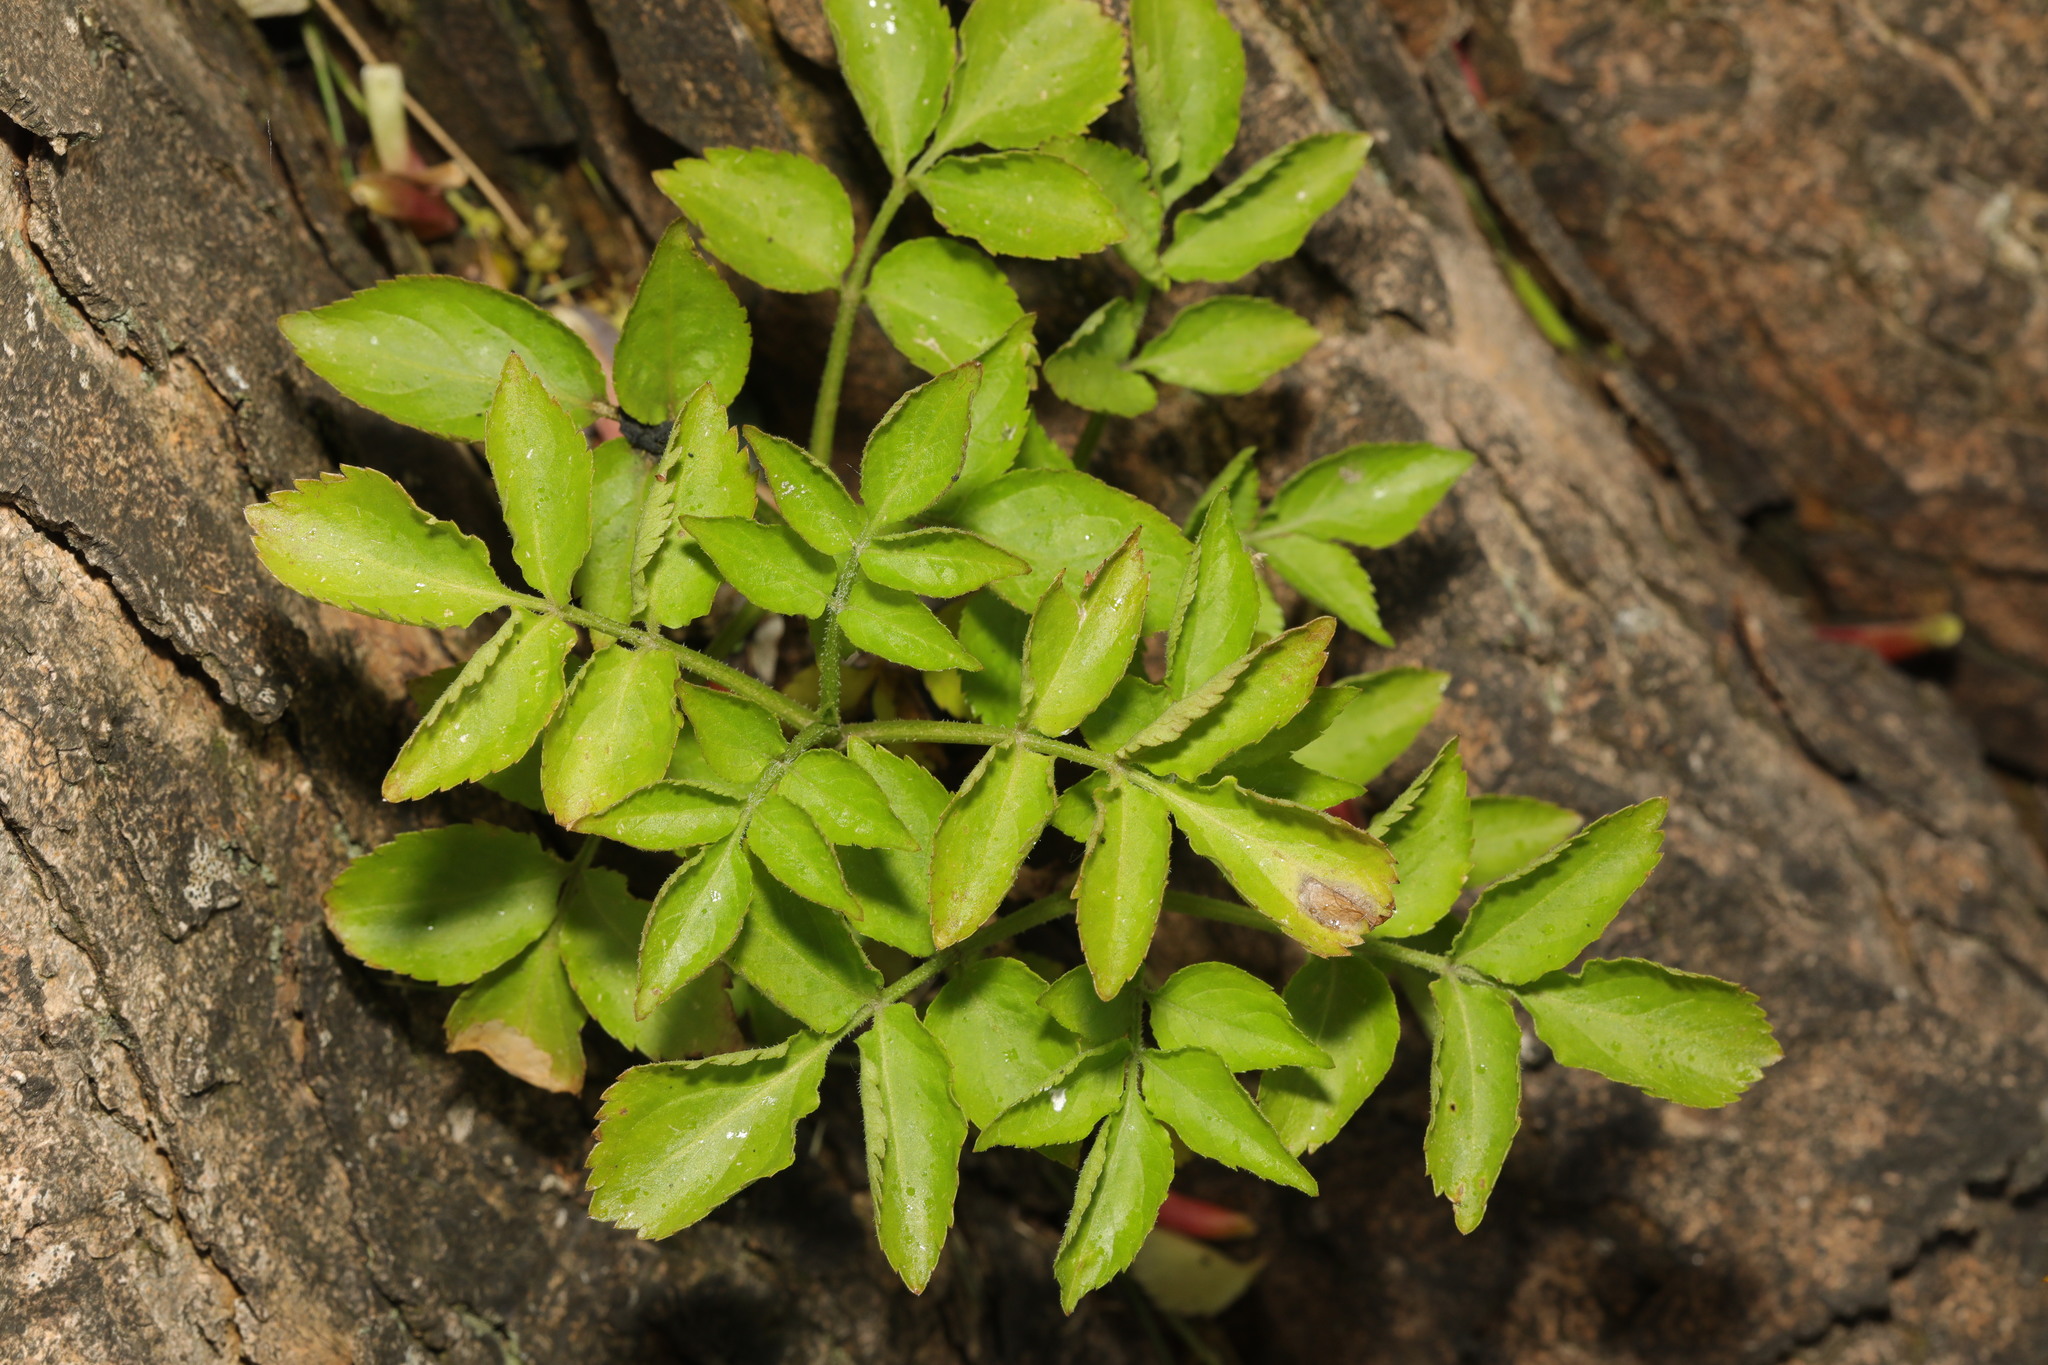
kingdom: Plantae
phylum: Tracheophyta
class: Magnoliopsida
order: Dipsacales
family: Viburnaceae
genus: Sambucus
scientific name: Sambucus nigra
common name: Elder
